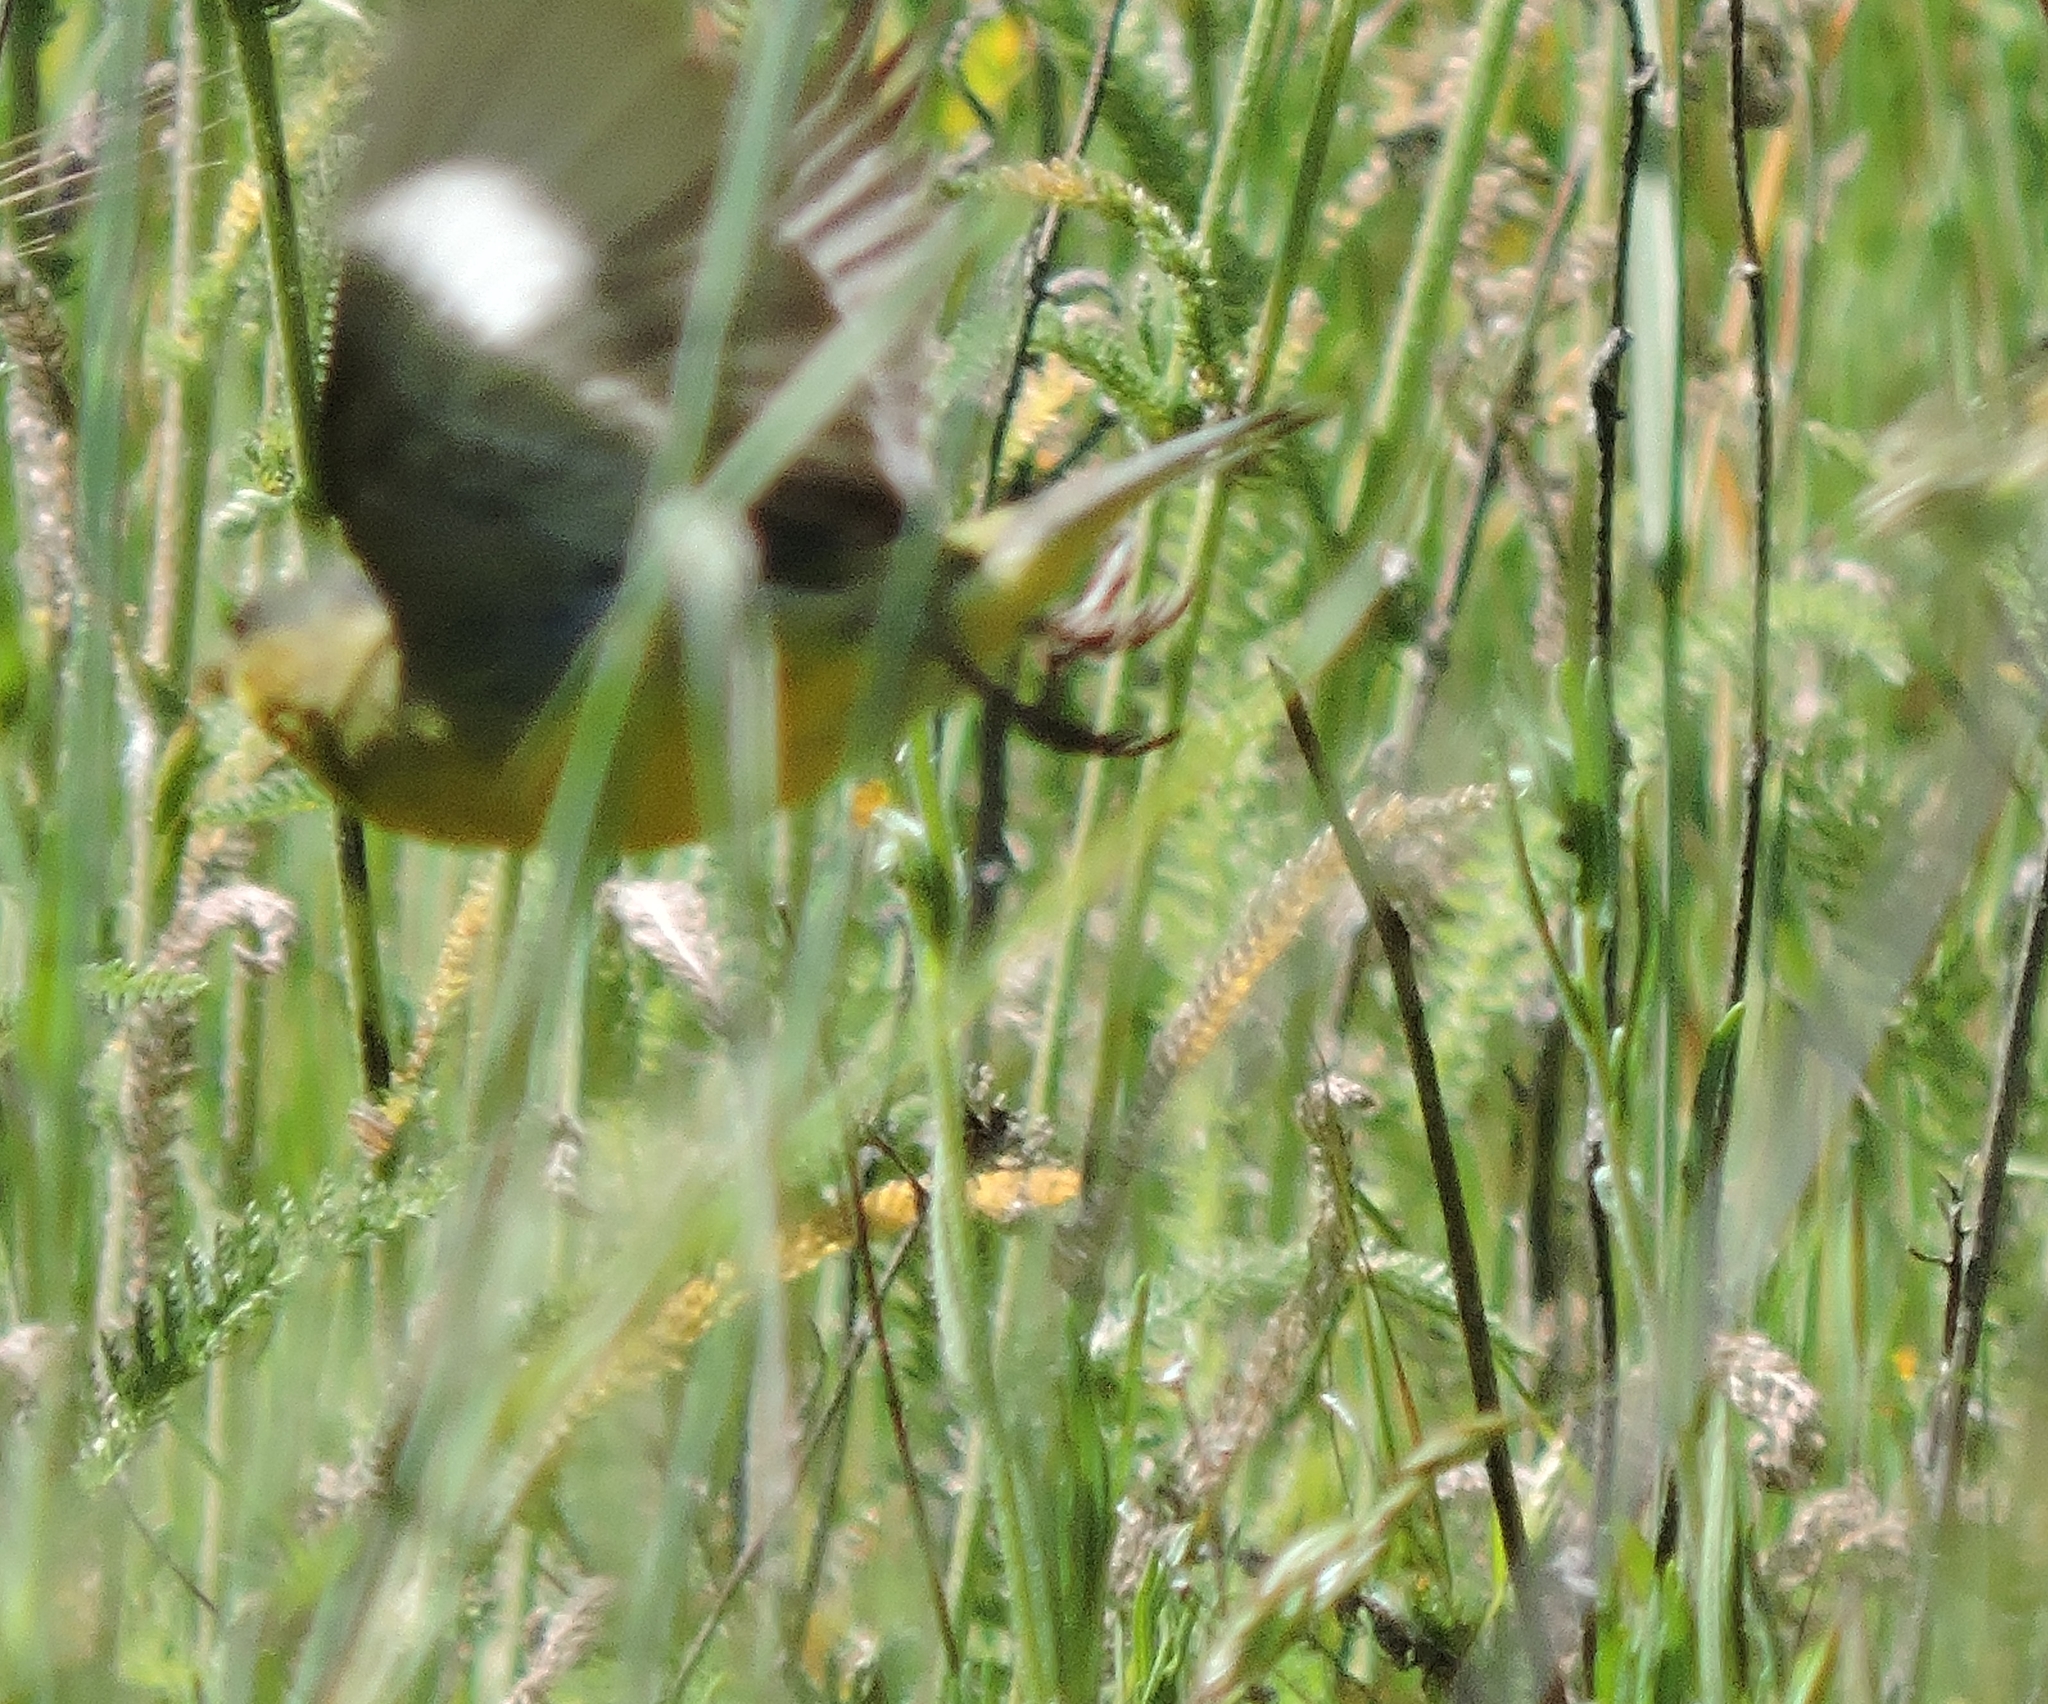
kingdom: Animalia
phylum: Chordata
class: Aves
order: Passeriformes
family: Fringillidae
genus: Spinus
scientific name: Spinus psaltria
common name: Lesser goldfinch
